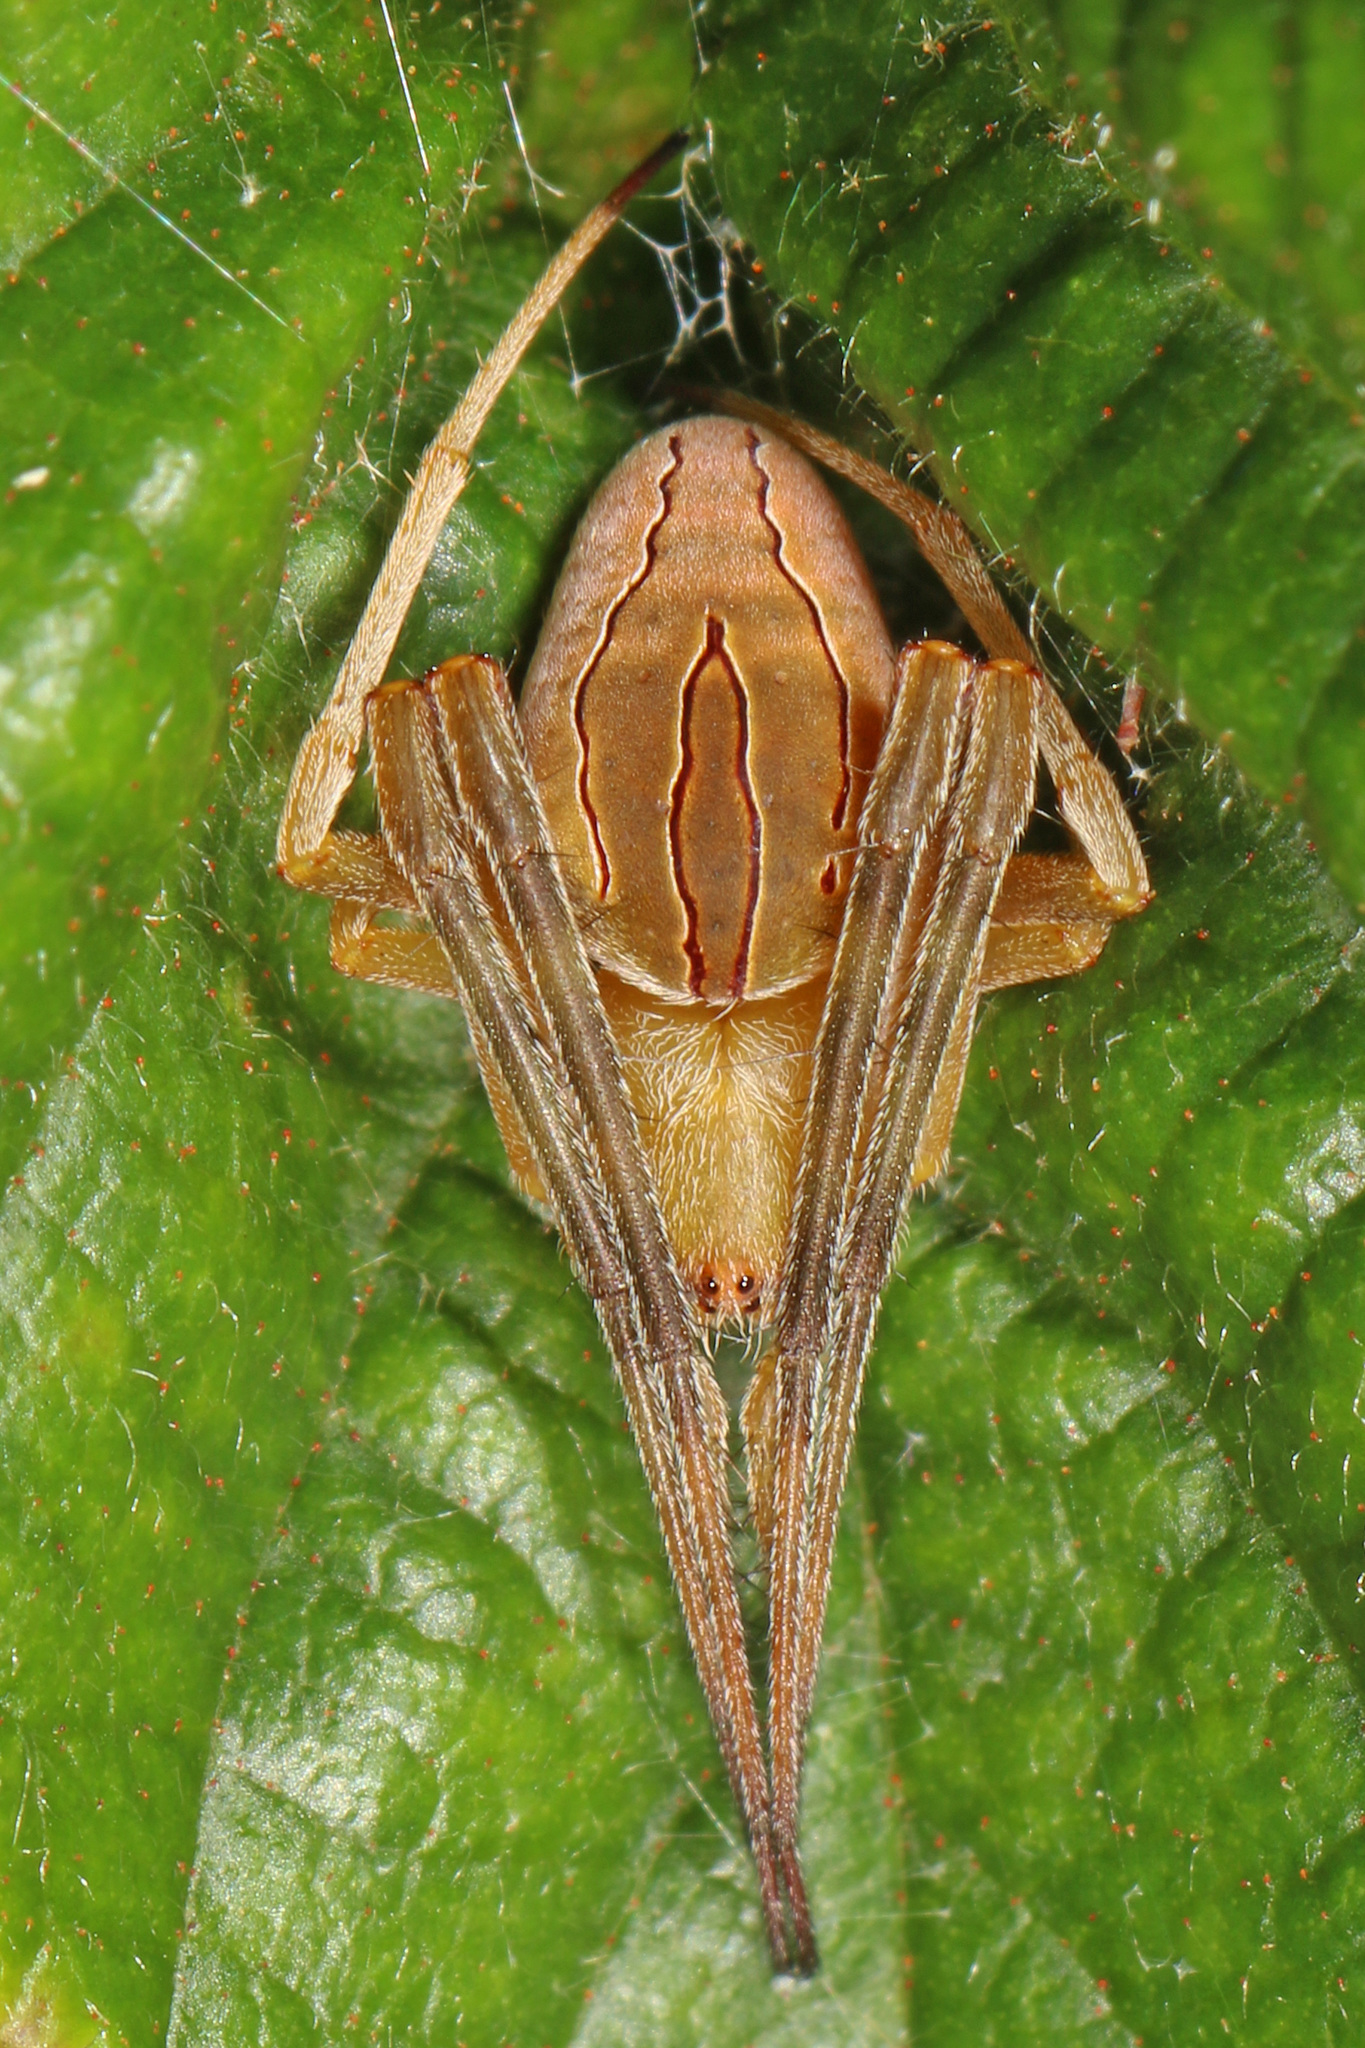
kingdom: Animalia
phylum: Arthropoda
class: Arachnida
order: Araneae
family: Araneidae
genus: Acacesia
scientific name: Acacesia hamata
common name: Orb weavers
